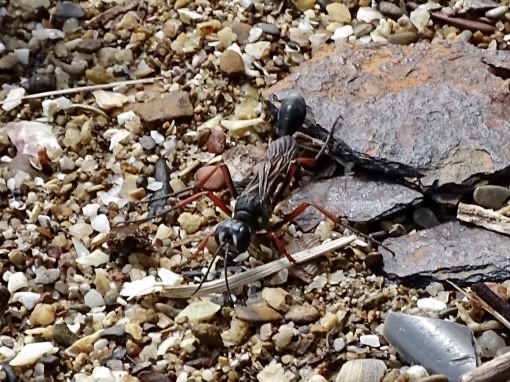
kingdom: Animalia
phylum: Arthropoda
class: Insecta
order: Hymenoptera
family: Sphecidae
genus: Ammophila
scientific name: Ammophila clavus
